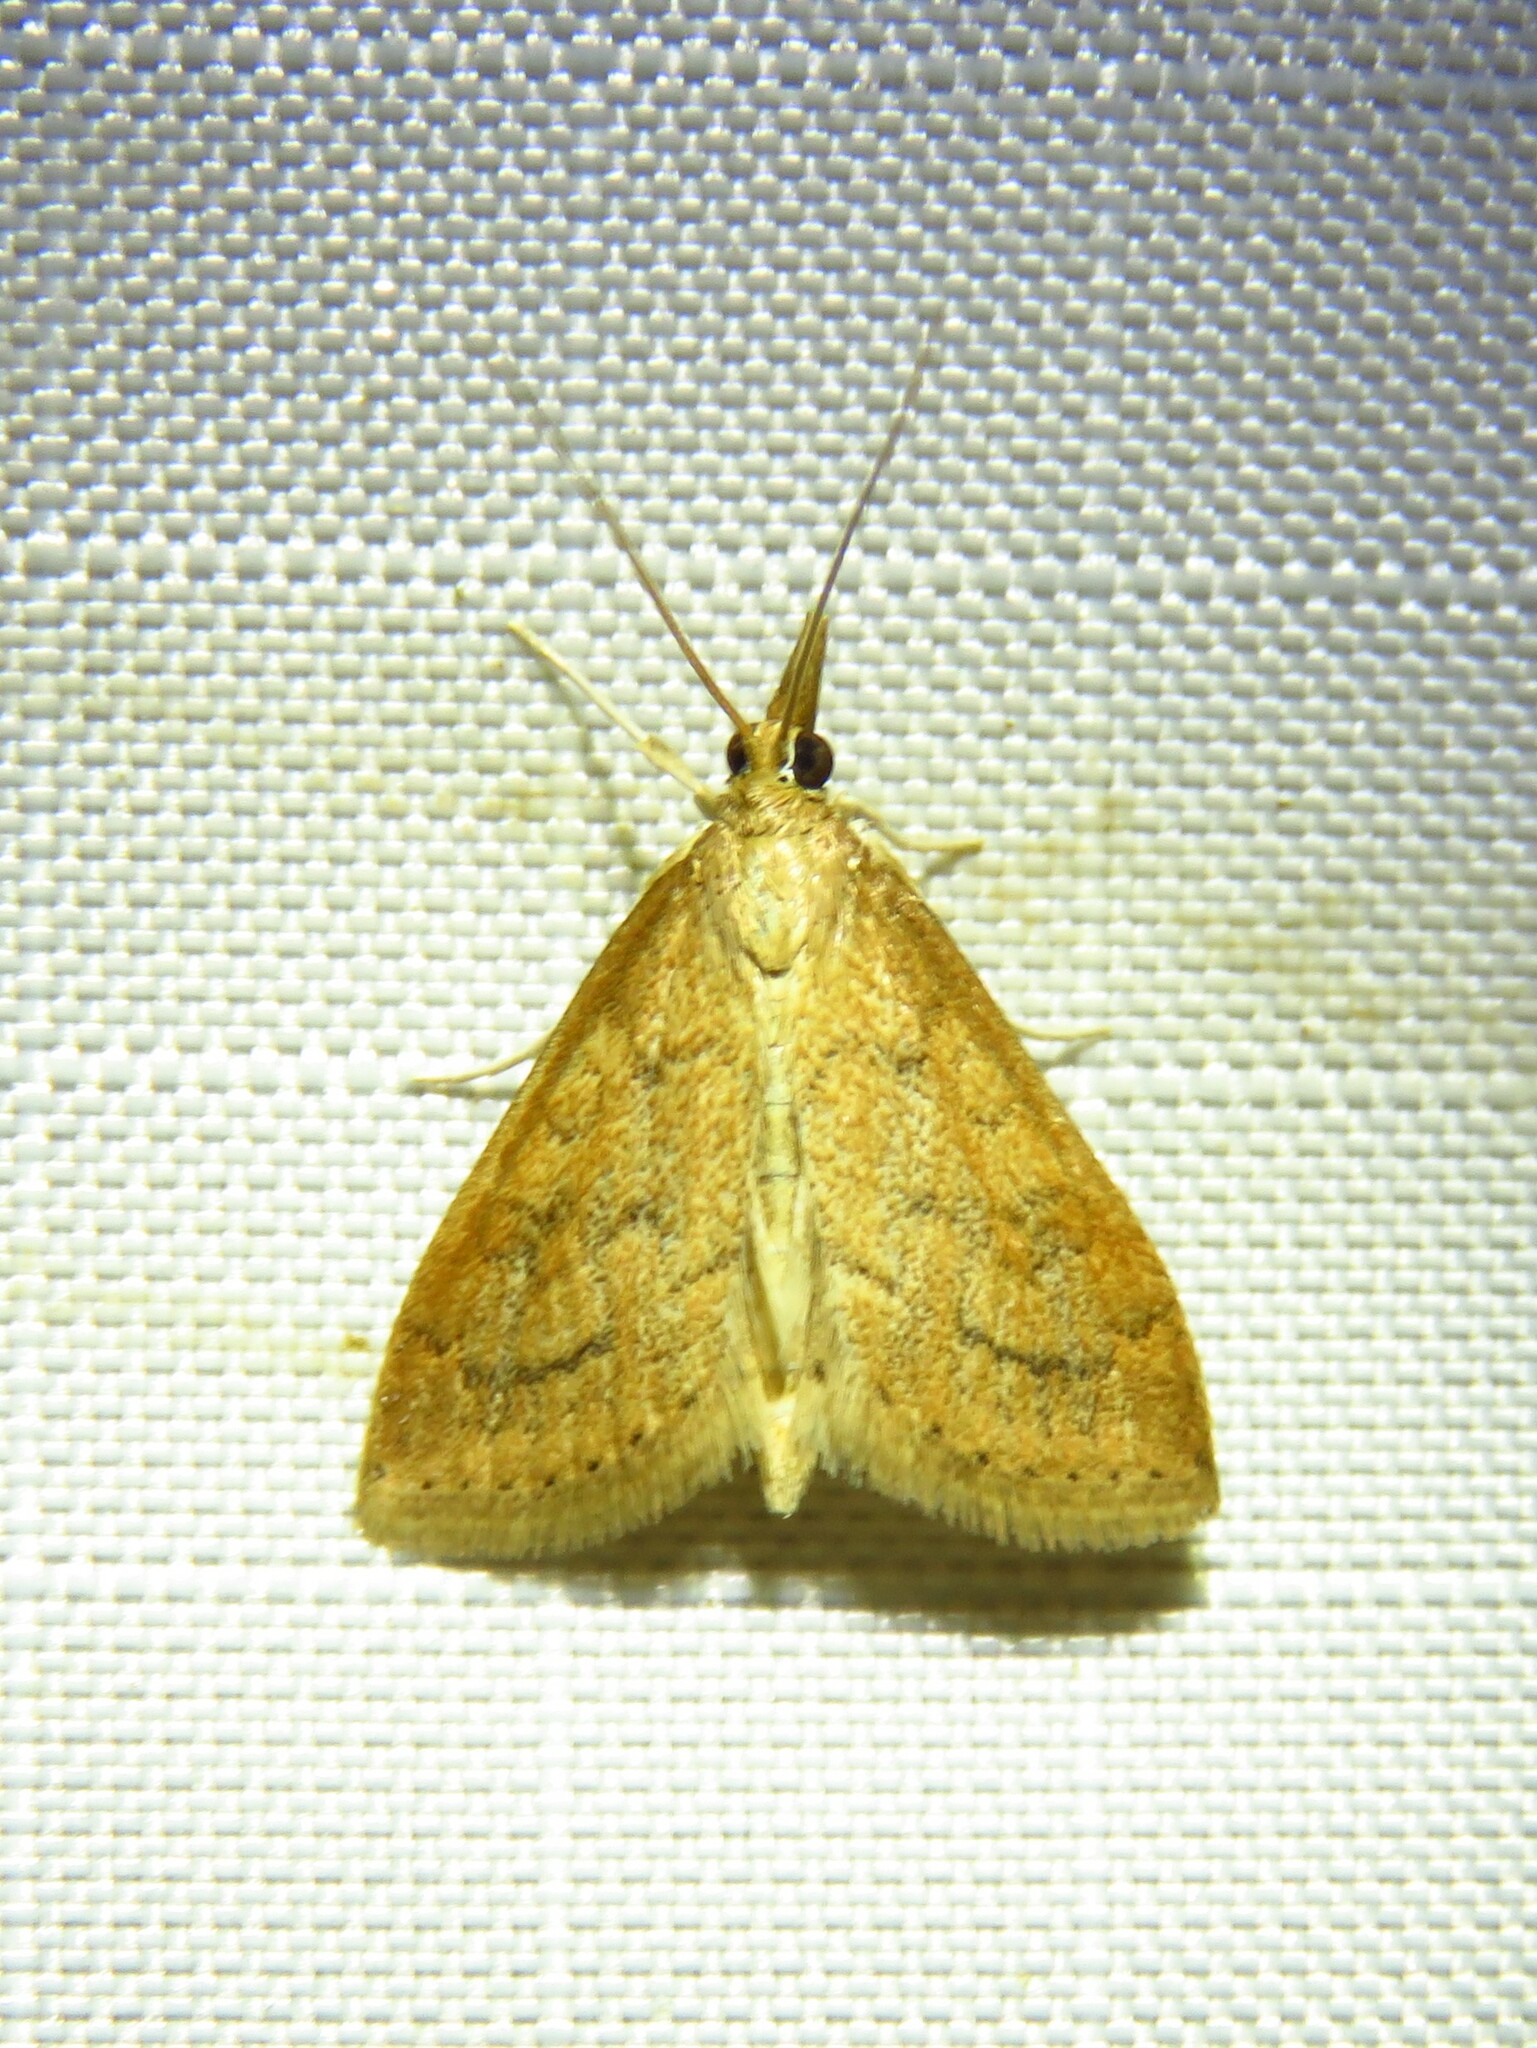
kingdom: Animalia
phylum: Arthropoda
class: Insecta
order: Lepidoptera
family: Crambidae
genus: Udea
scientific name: Udea rubigalis
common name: Celery leaftier moth
